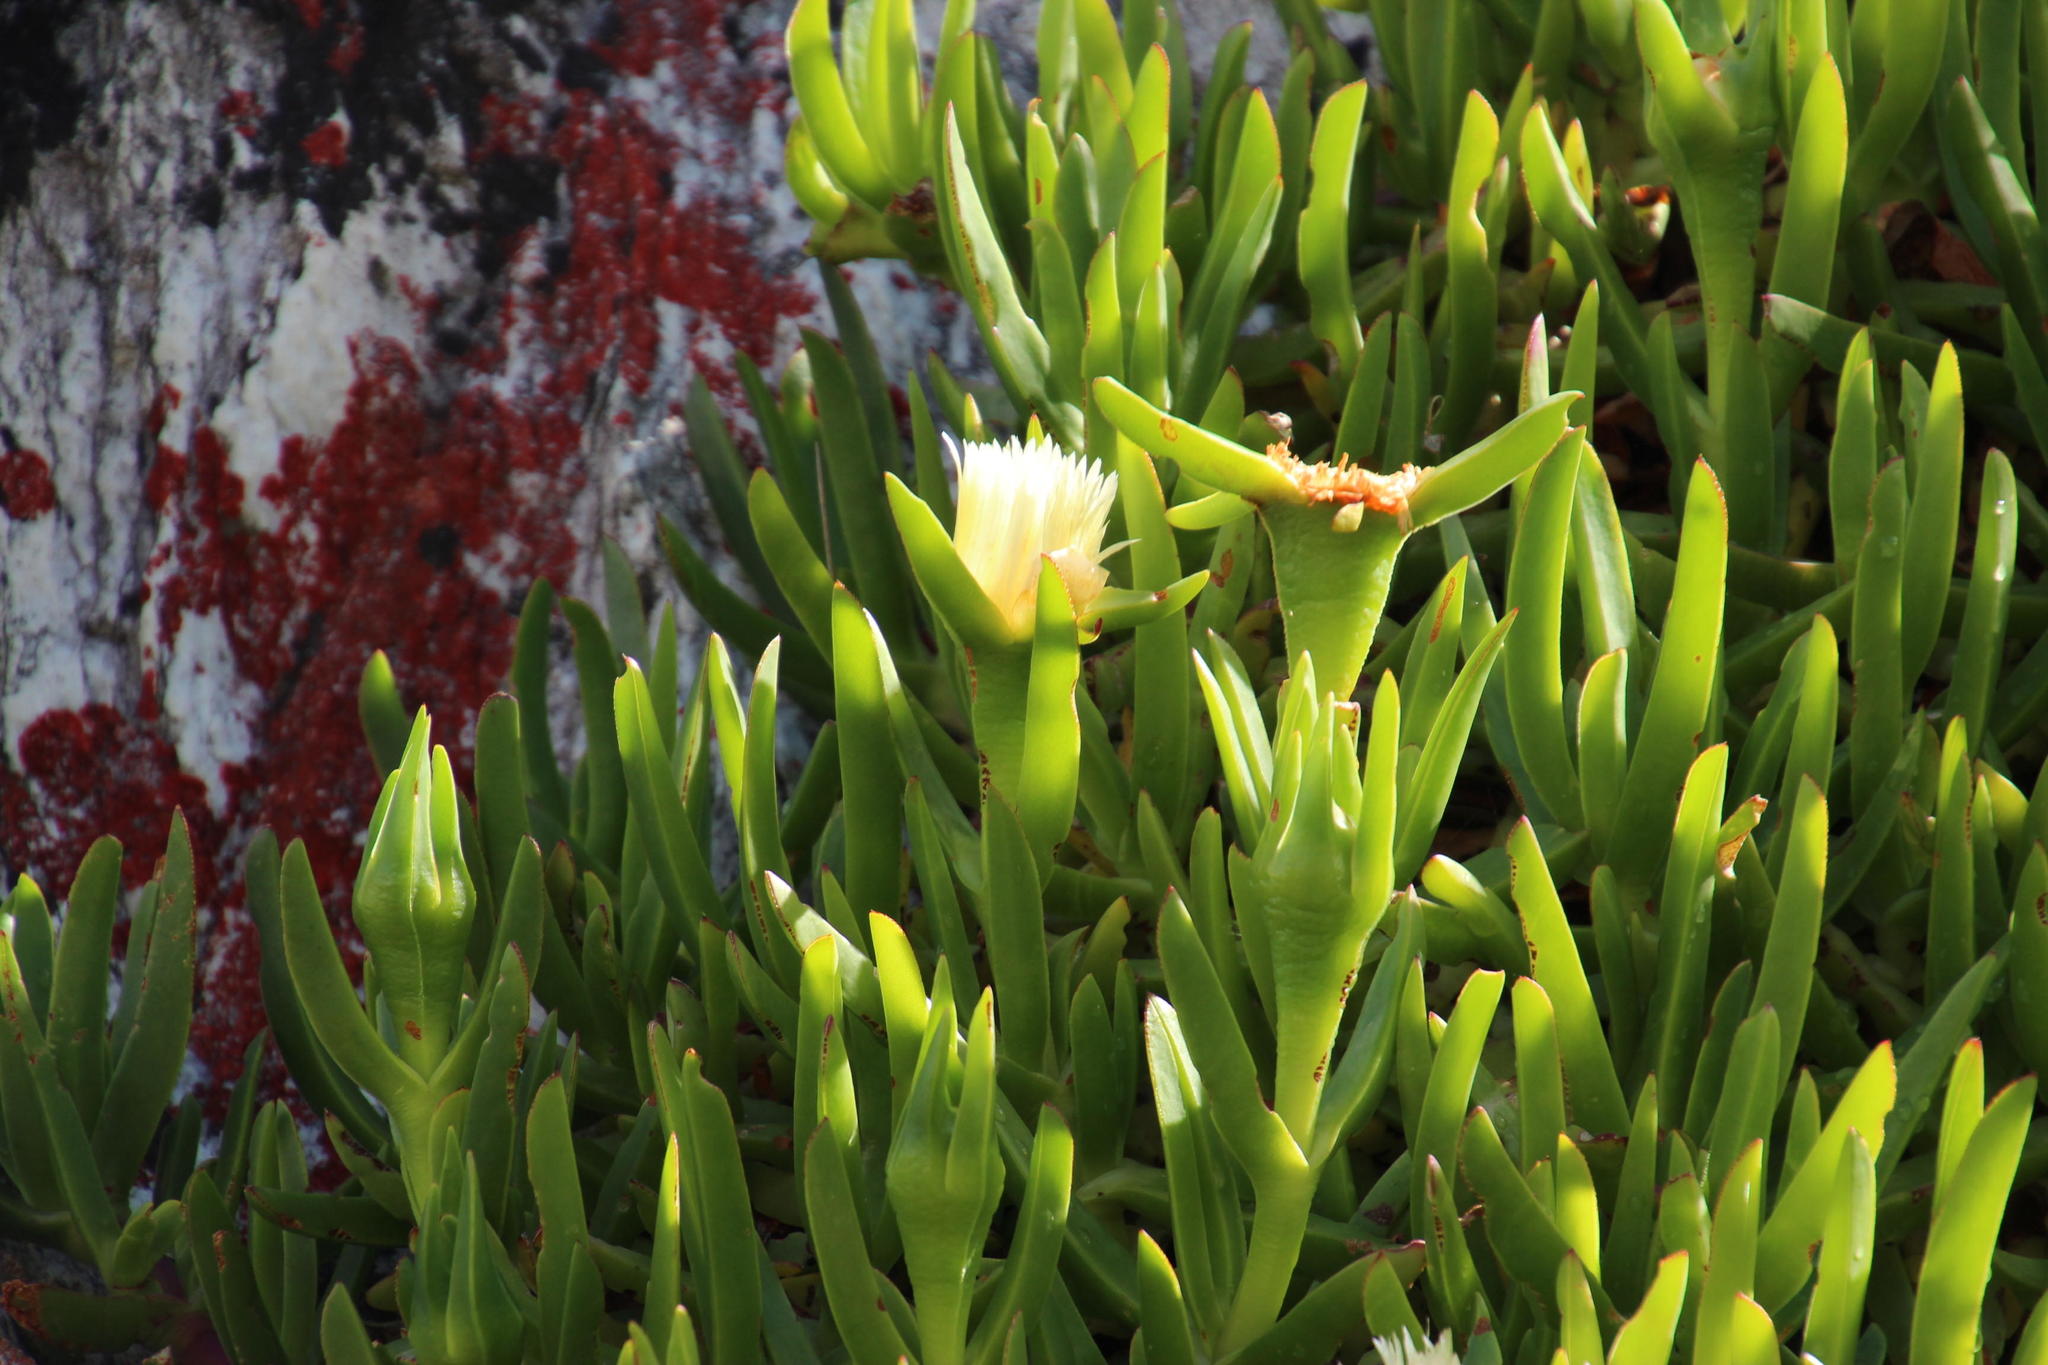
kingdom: Plantae
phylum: Tracheophyta
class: Magnoliopsida
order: Caryophyllales
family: Aizoaceae
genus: Carpobrotus
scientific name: Carpobrotus edulis
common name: Hottentot-fig
